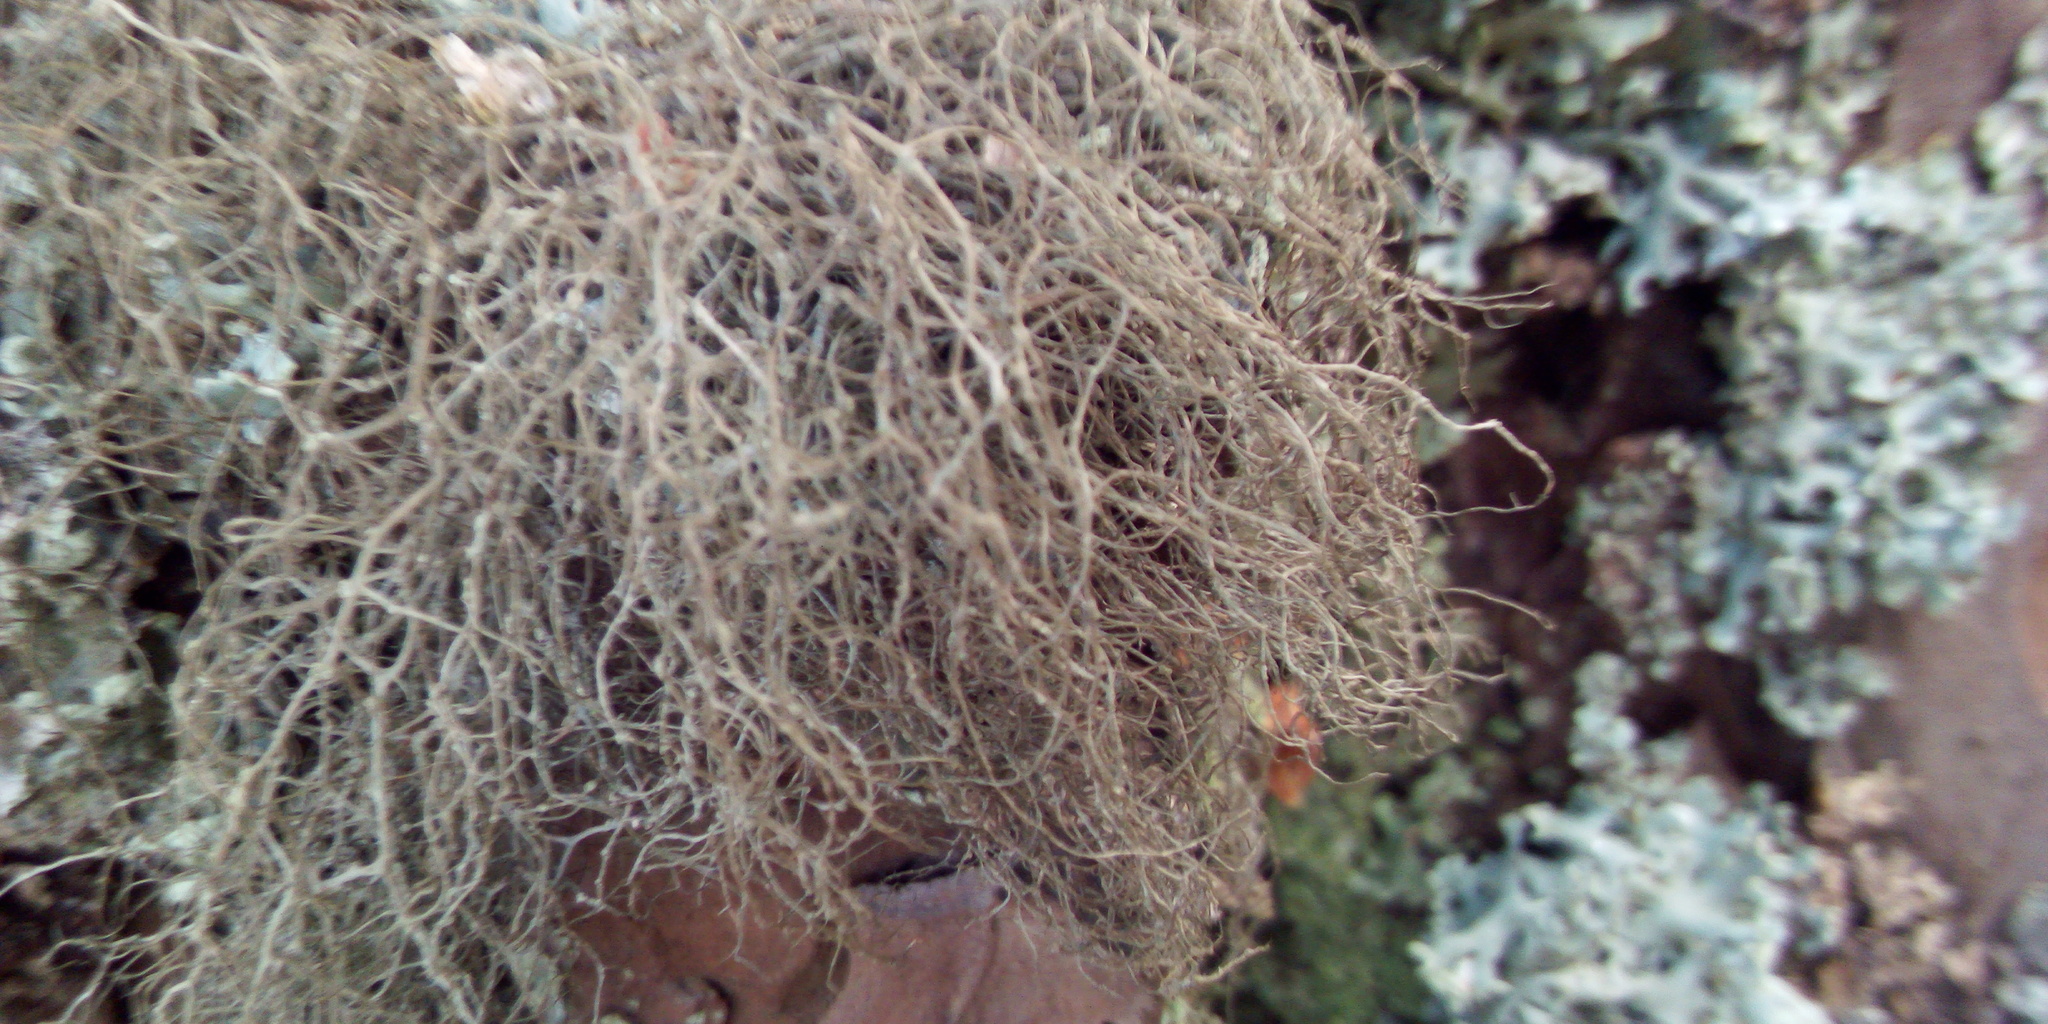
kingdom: Fungi
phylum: Ascomycota
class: Lecanoromycetes
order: Lecanorales
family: Parmeliaceae
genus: Bryoria
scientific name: Bryoria fuscescens
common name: Pale-footed horsehair lichen
